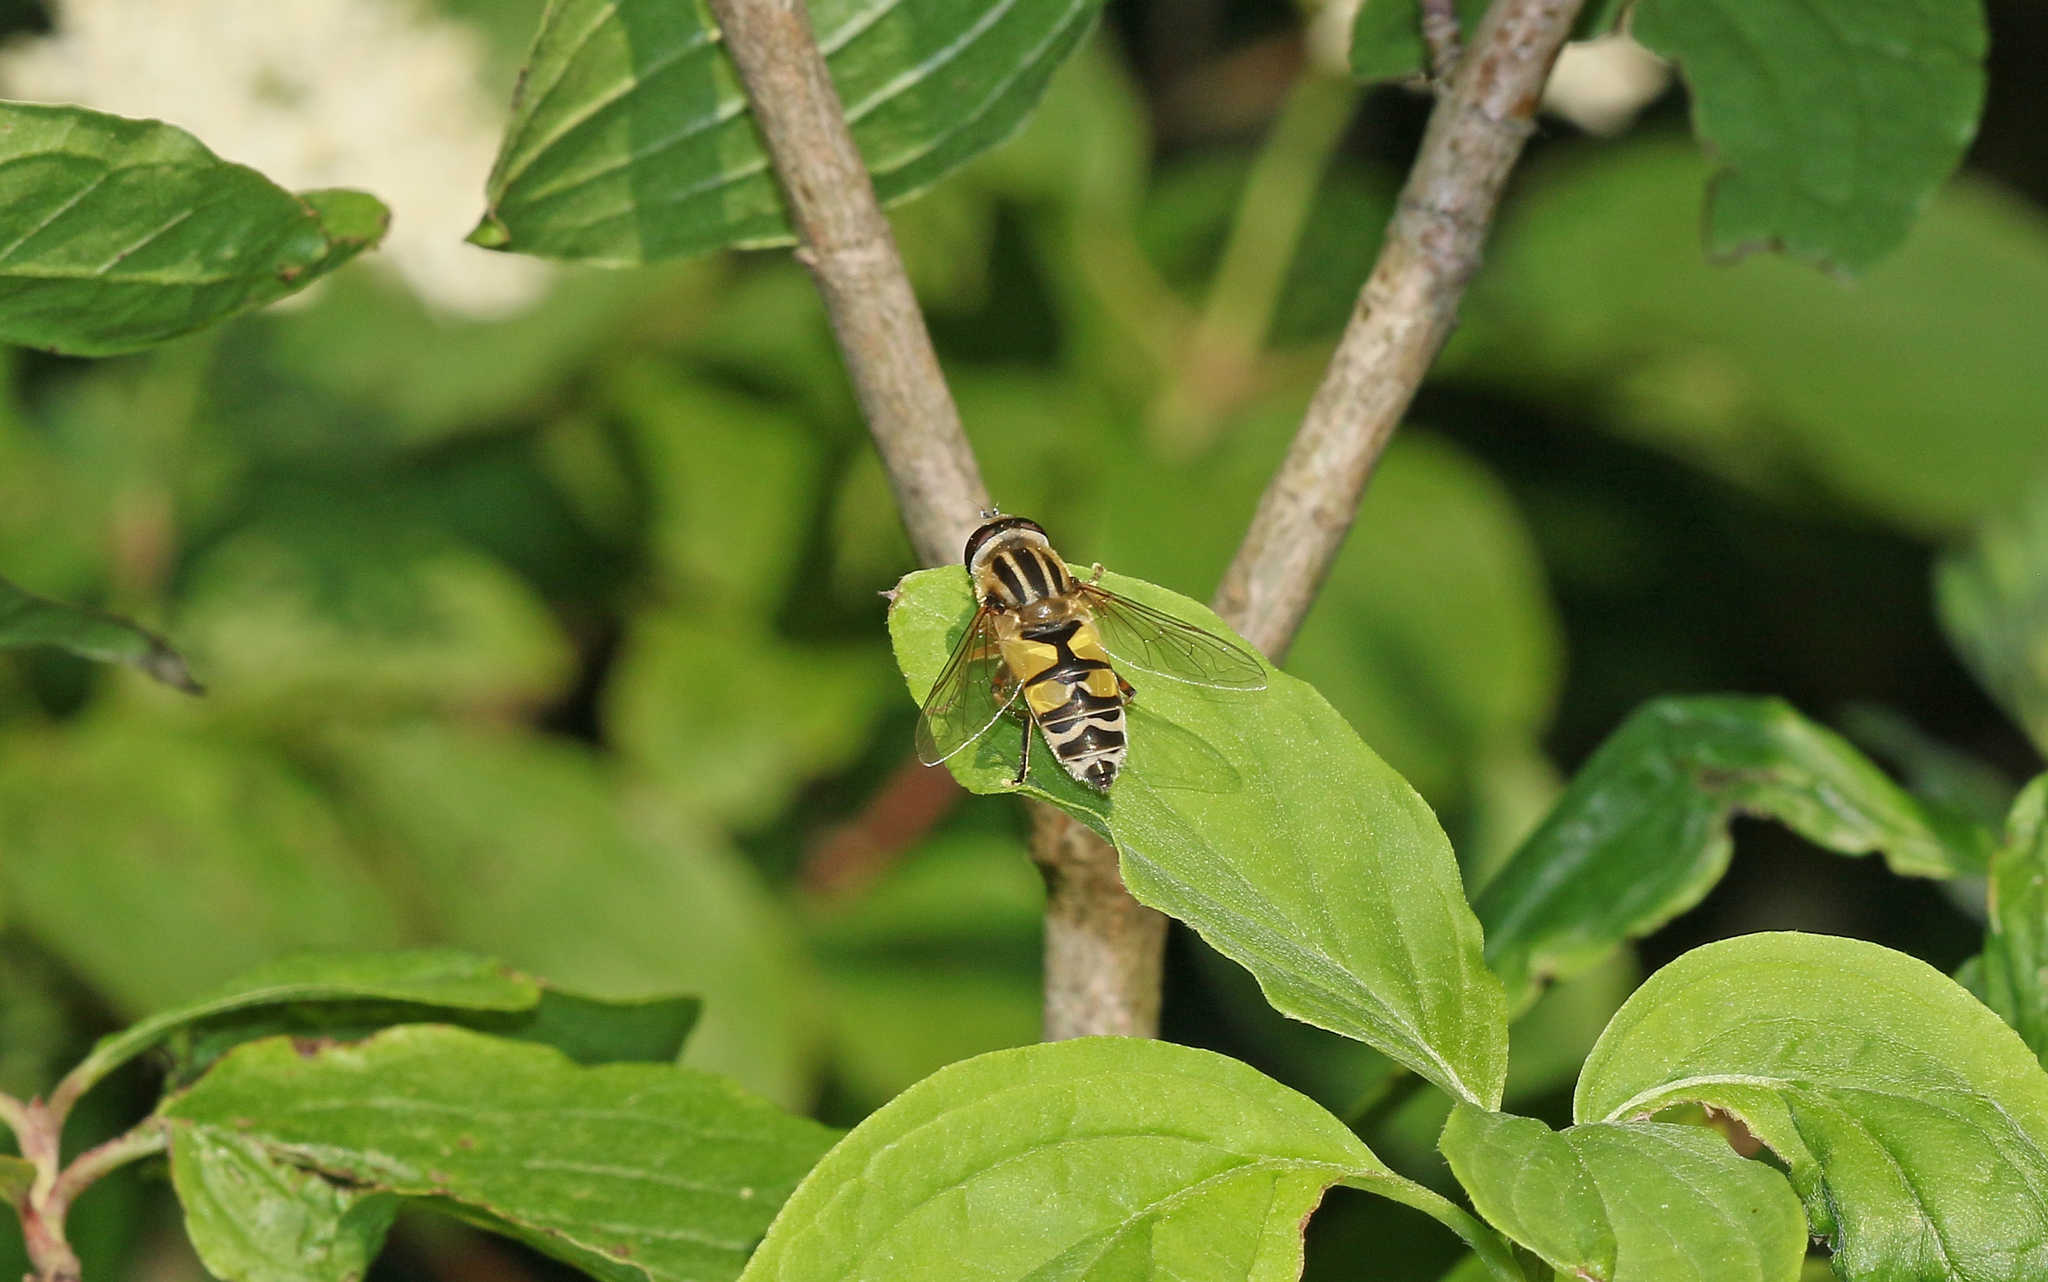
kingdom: Animalia
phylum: Arthropoda
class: Insecta
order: Diptera
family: Syrphidae
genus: Helophilus
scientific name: Helophilus trivittatus
